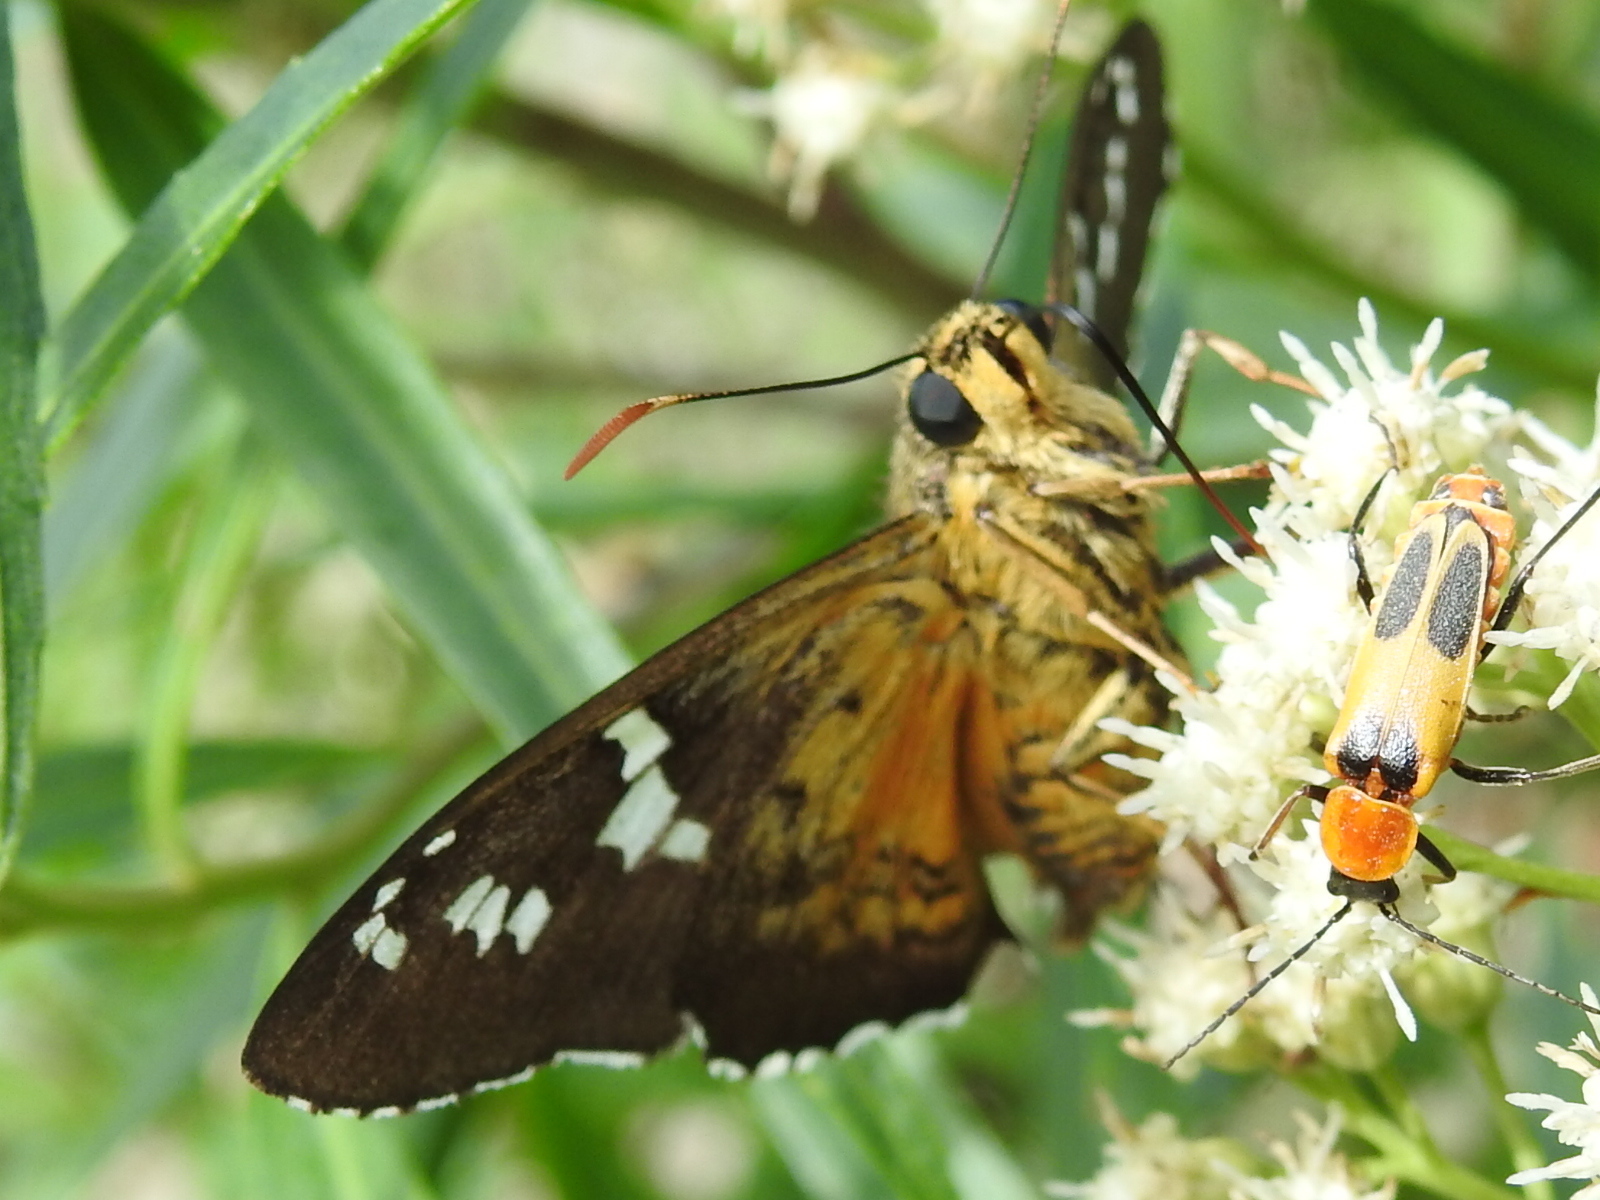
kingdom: Animalia
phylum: Arthropoda
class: Insecta
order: Lepidoptera
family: Hesperiidae
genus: Pyrrhopyge
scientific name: Pyrrhopyge araxes
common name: Dull firetip
